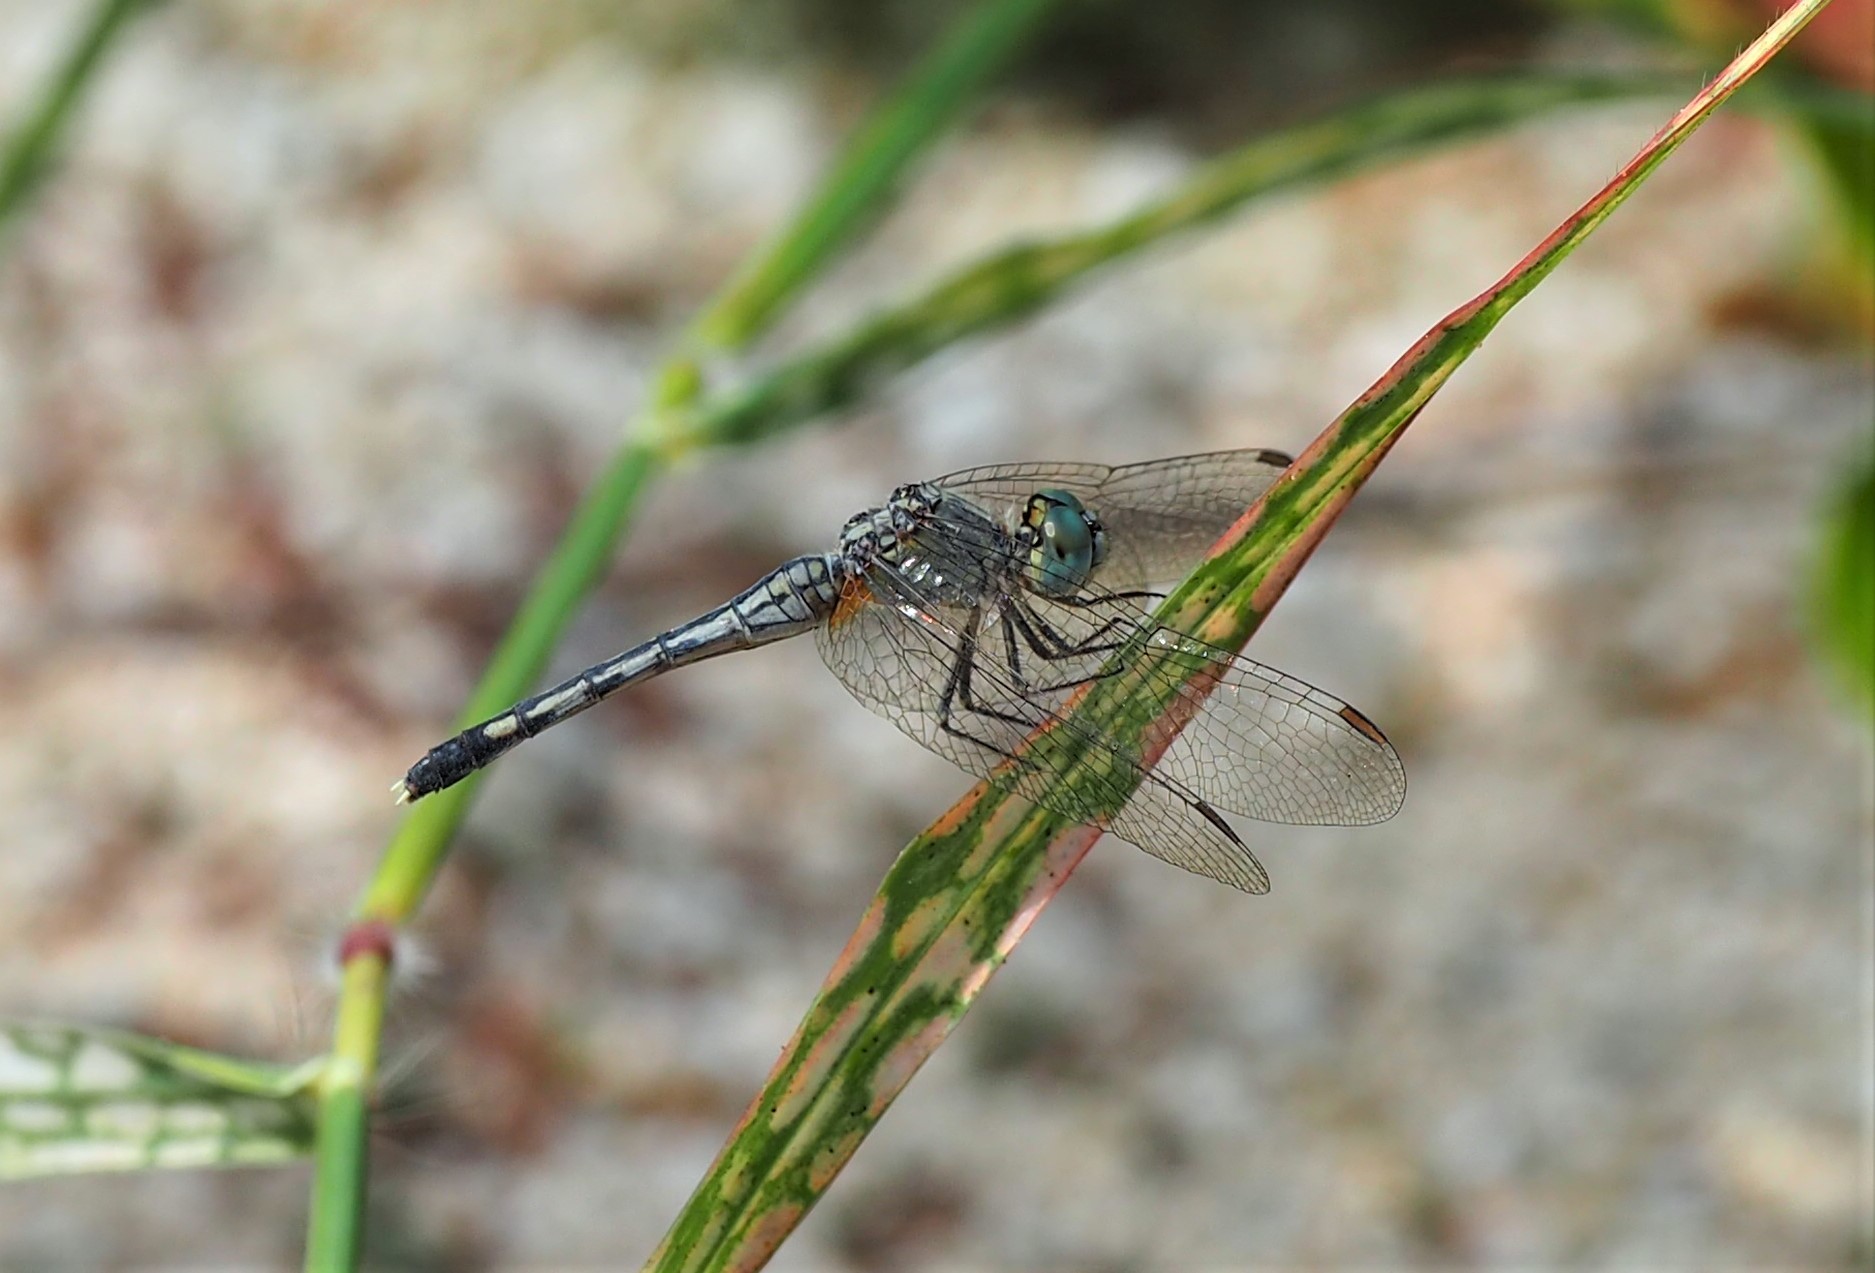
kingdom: Animalia
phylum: Arthropoda
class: Insecta
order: Odonata
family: Libellulidae
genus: Diplacodes
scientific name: Diplacodes trivialis
